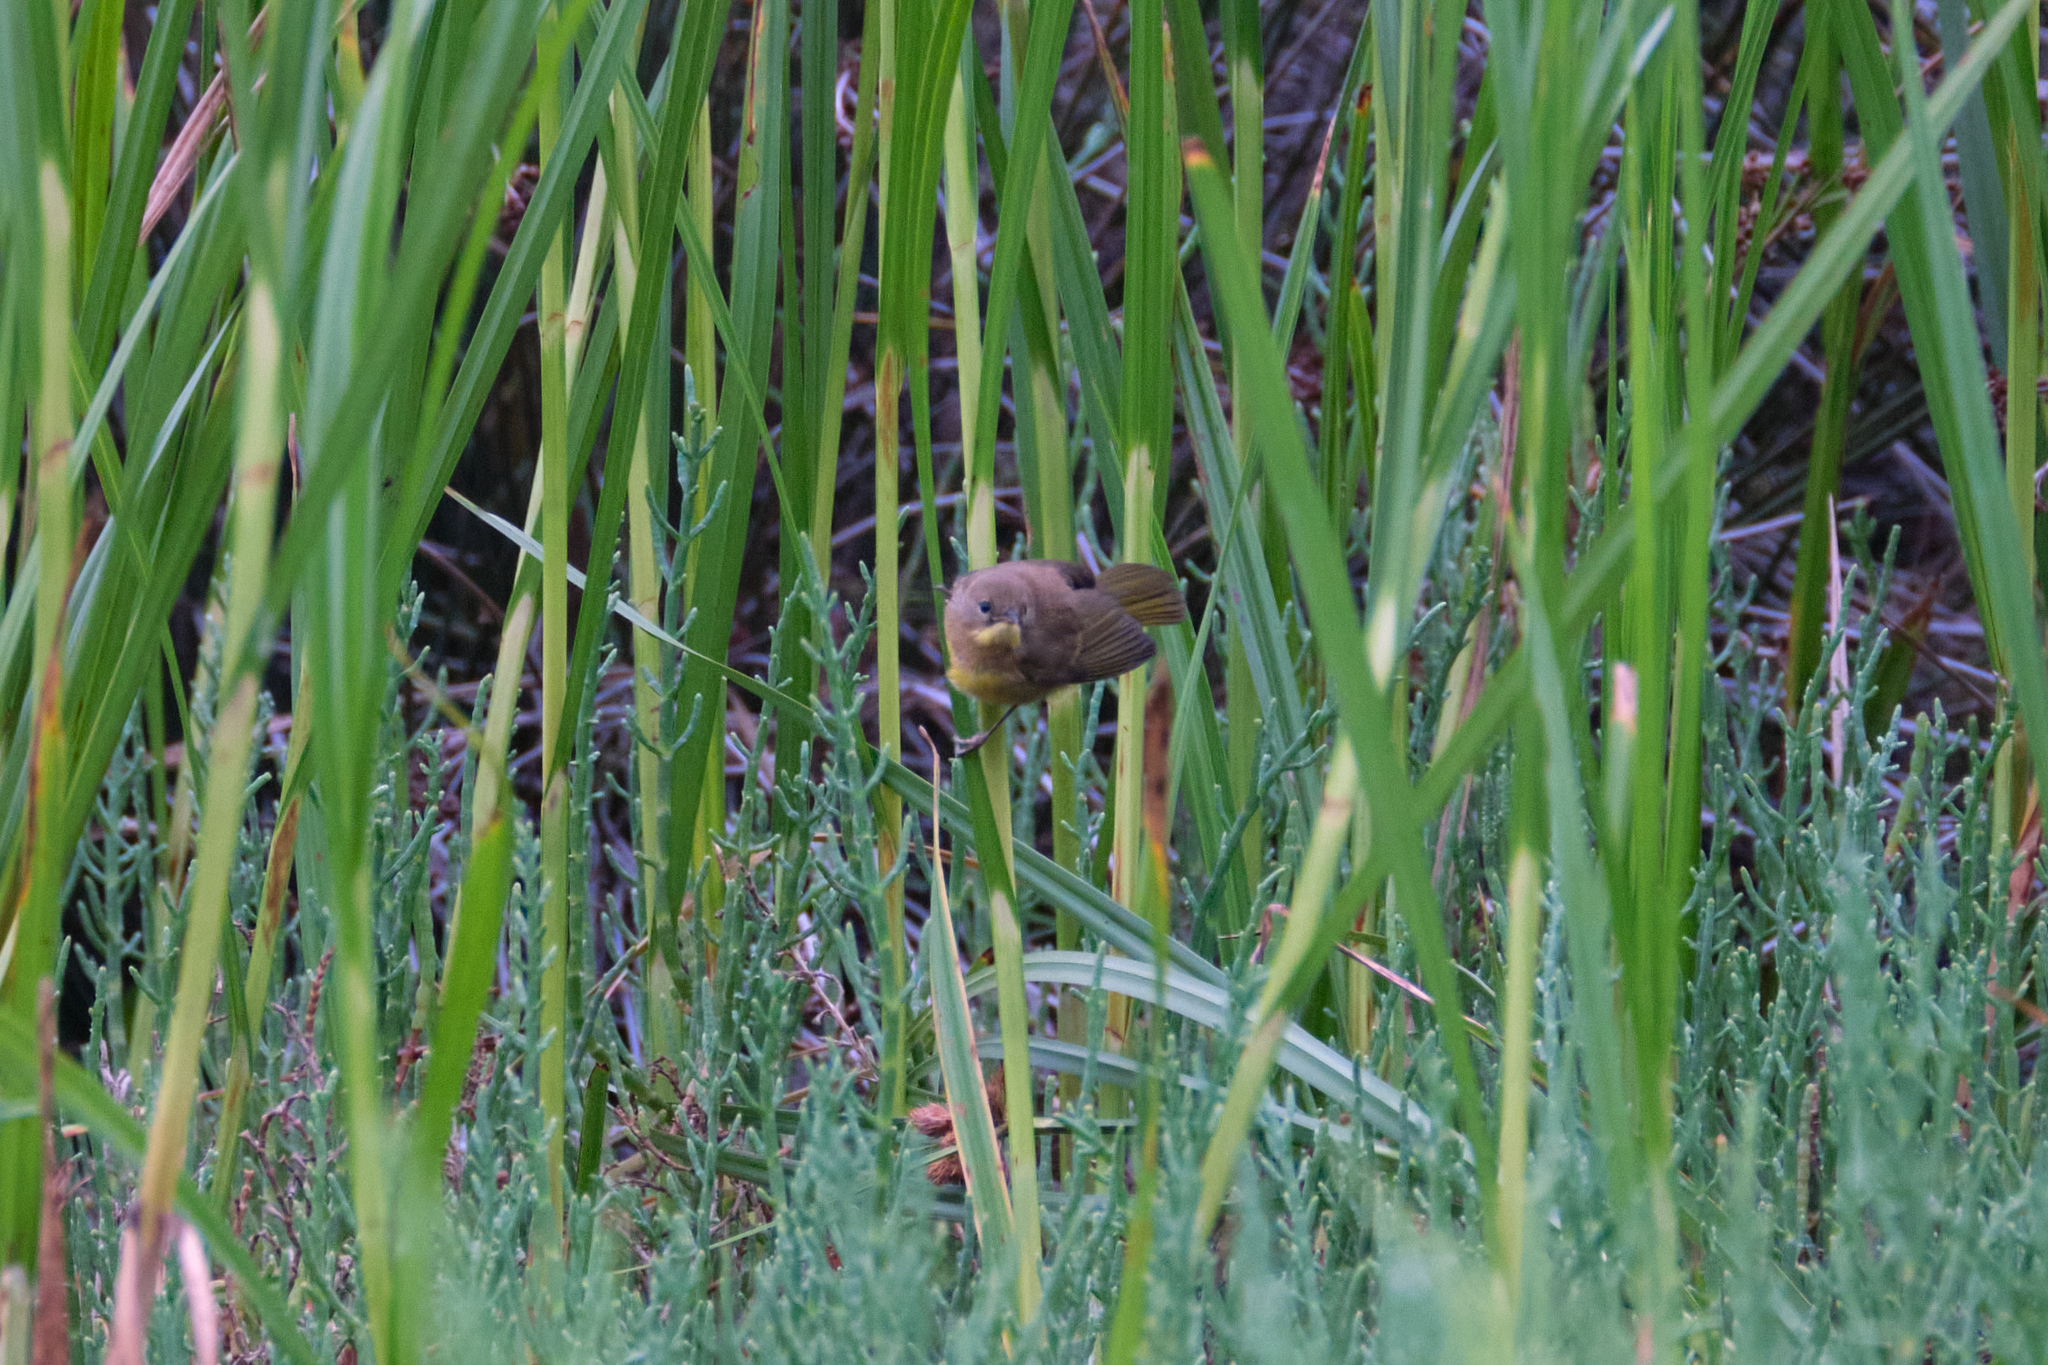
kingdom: Animalia
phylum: Chordata
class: Aves
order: Passeriformes
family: Parulidae
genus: Geothlypis
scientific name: Geothlypis trichas
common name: Common yellowthroat
